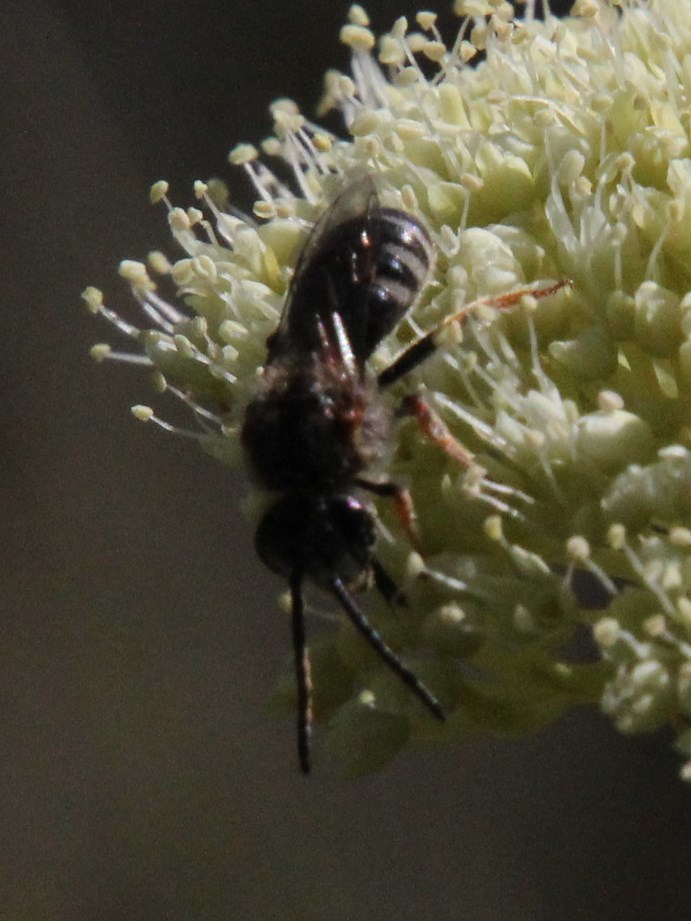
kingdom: Plantae
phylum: Tracheophyta
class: Magnoliopsida
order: Apiales
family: Apiaceae
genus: Hermas
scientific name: Hermas villosa
